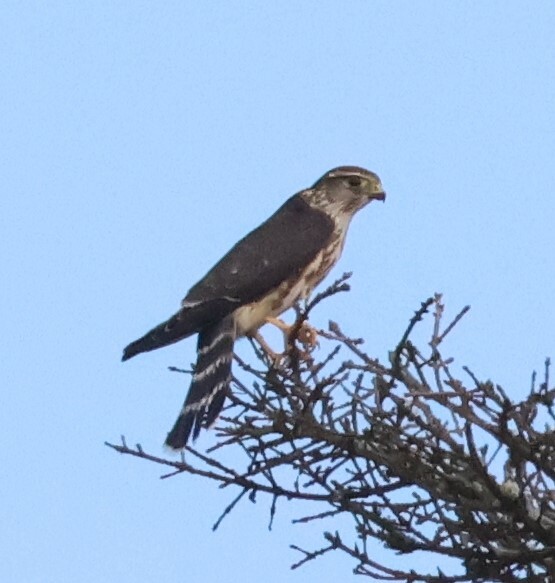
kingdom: Animalia
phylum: Chordata
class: Aves
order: Falconiformes
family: Falconidae
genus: Falco
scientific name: Falco columbarius
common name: Merlin
